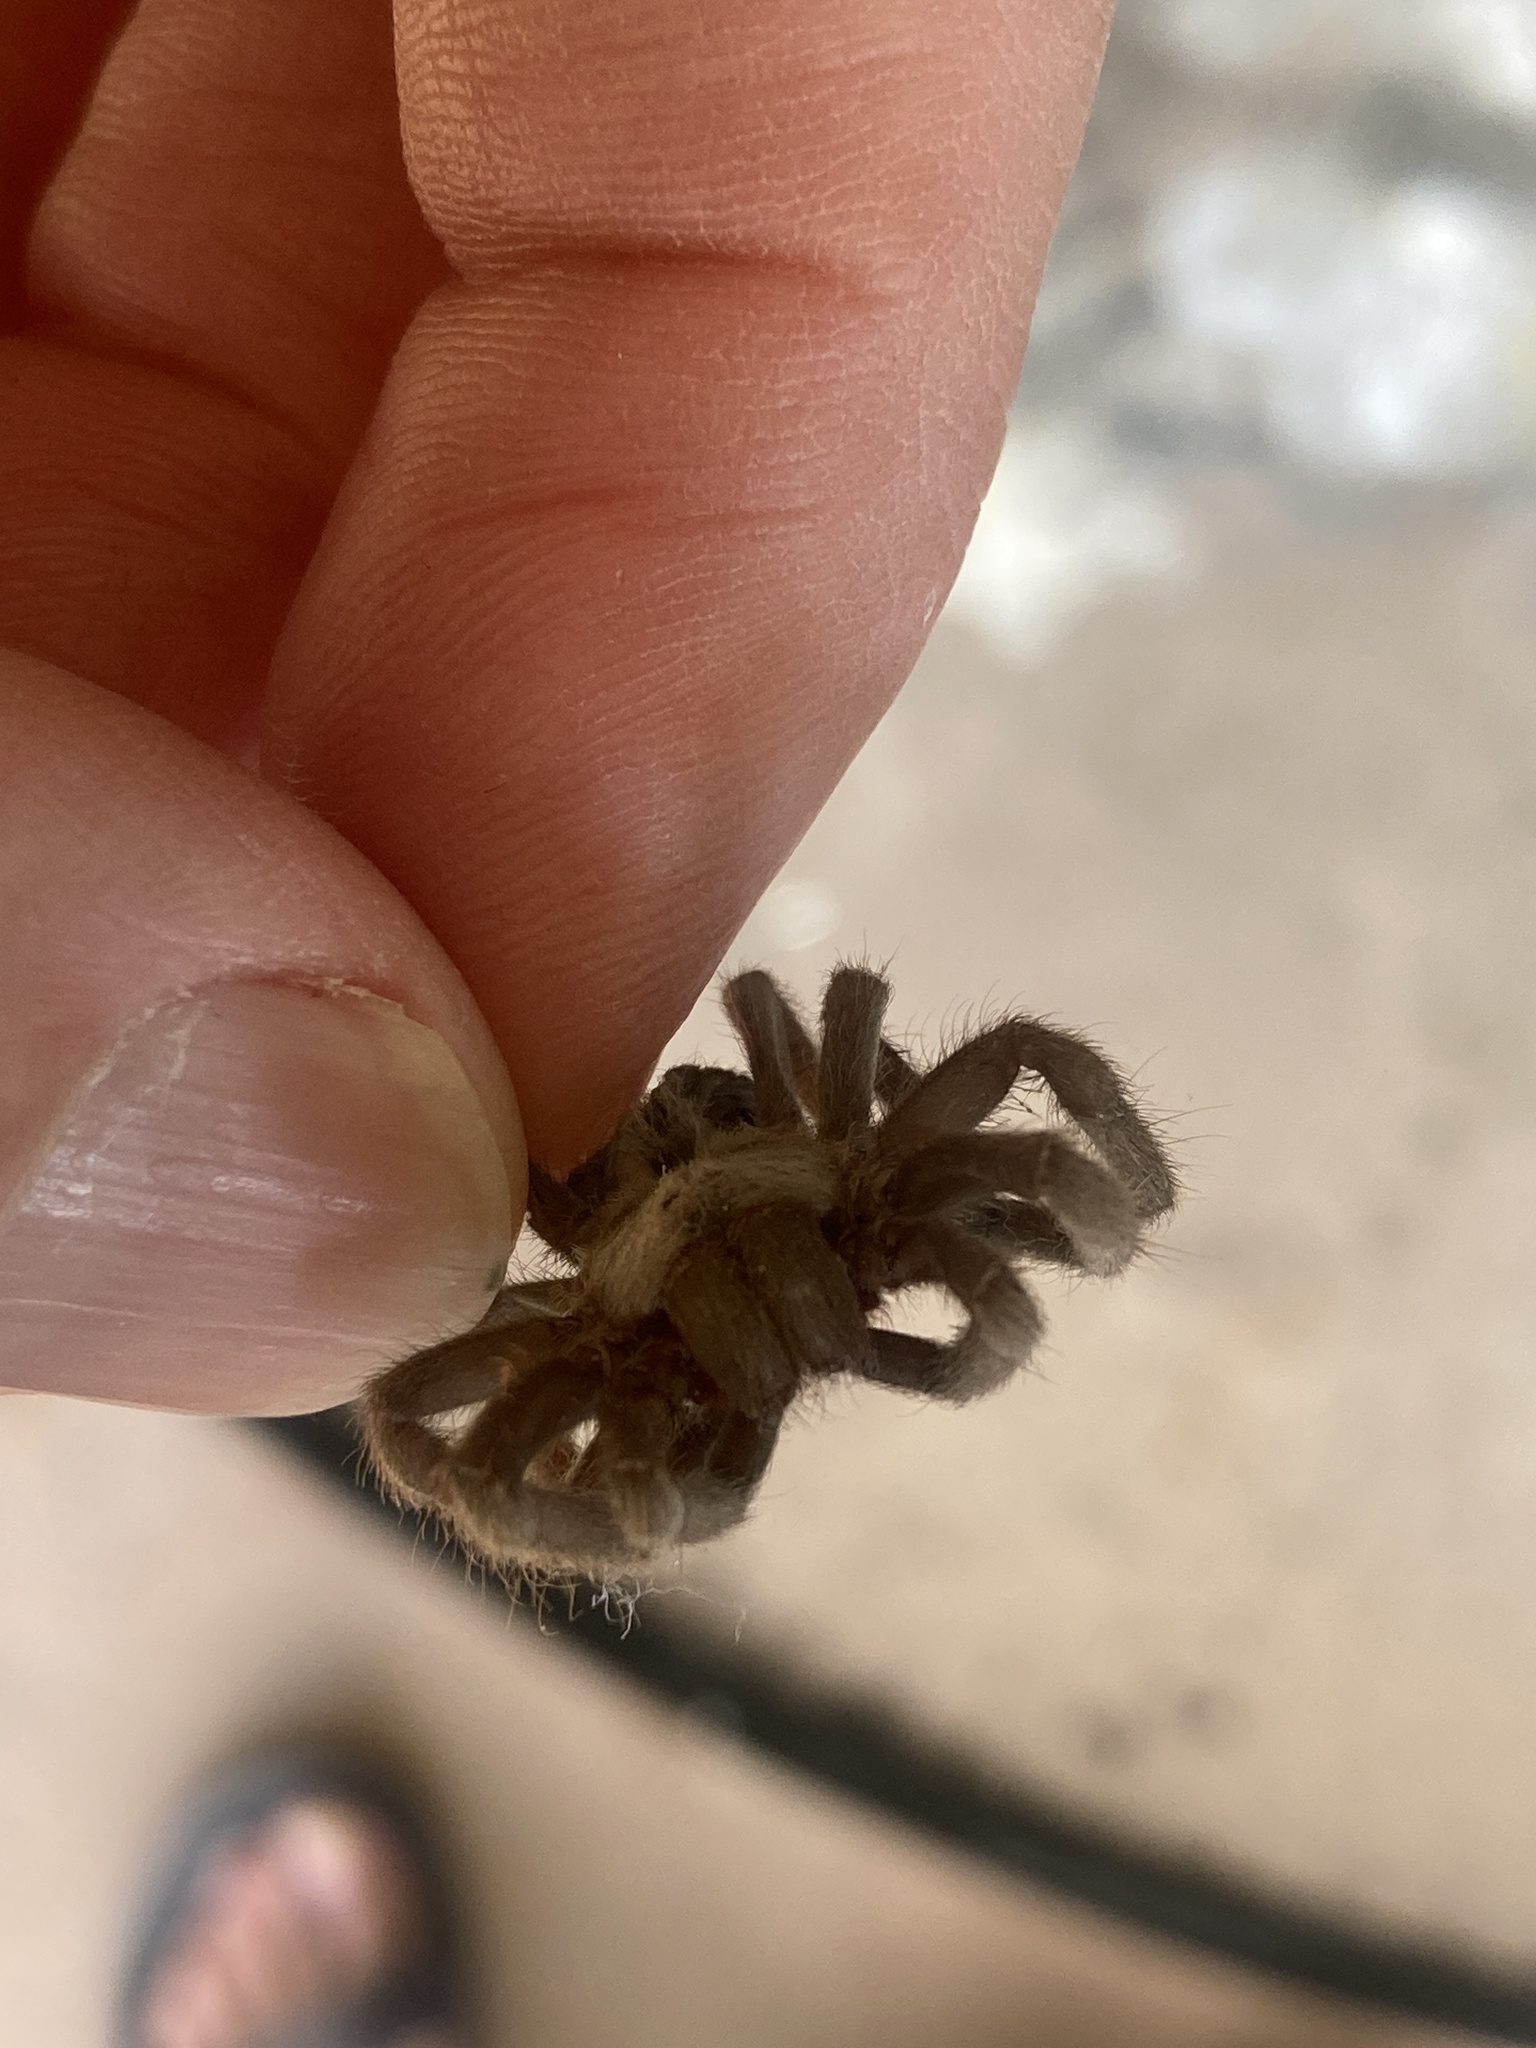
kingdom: Animalia
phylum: Arthropoda
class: Arachnida
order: Araneae
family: Theraphosidae
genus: Aphonopelma
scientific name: Aphonopelma hentzi
